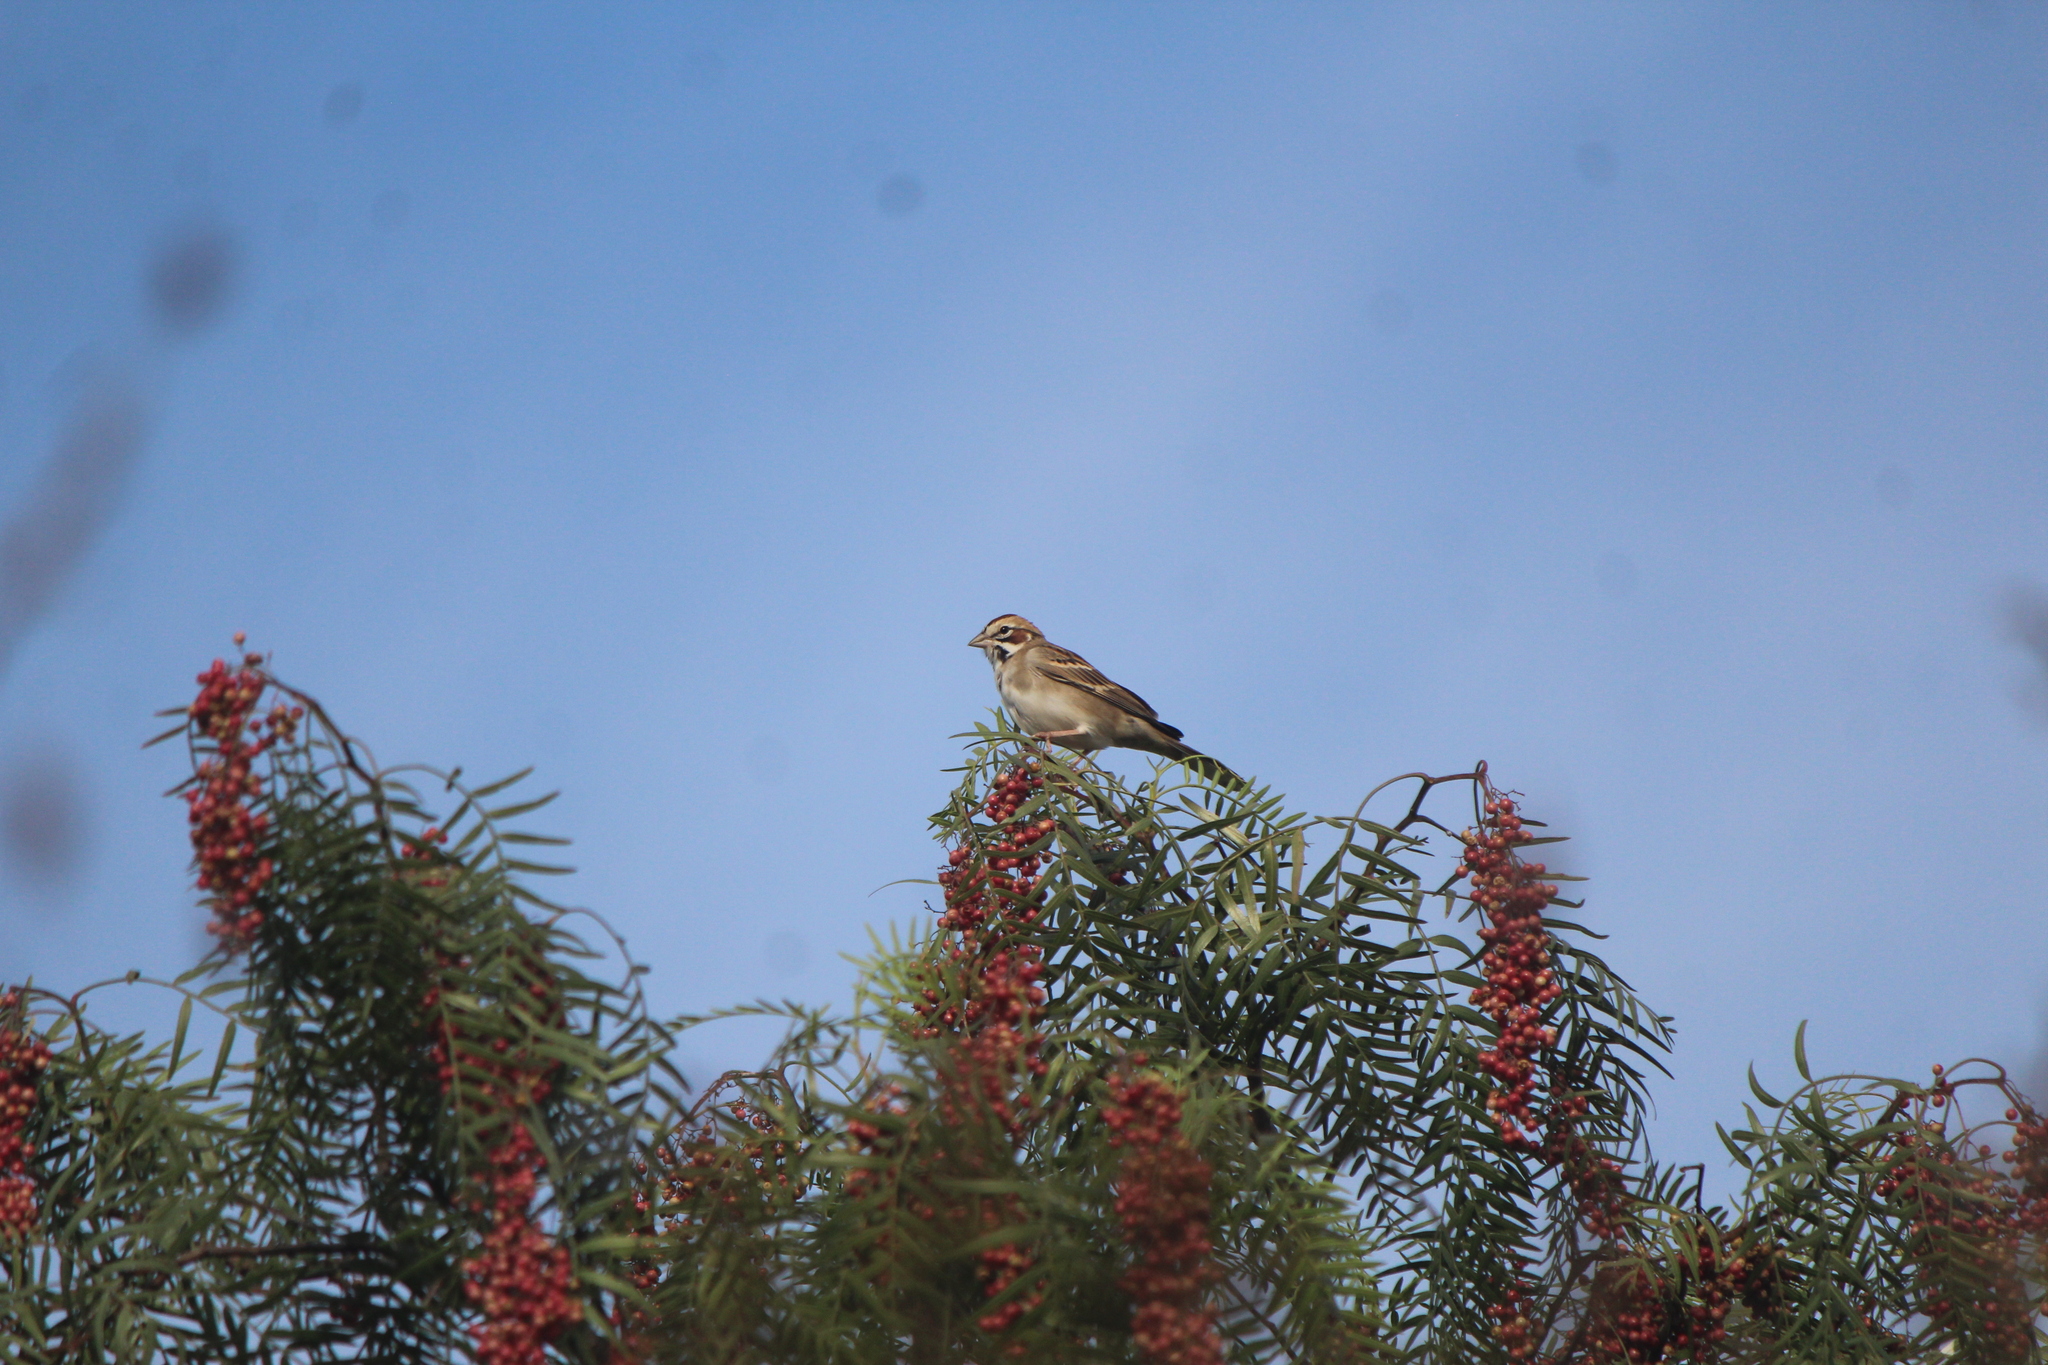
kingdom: Animalia
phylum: Chordata
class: Aves
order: Passeriformes
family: Passerellidae
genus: Chondestes
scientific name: Chondestes grammacus
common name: Lark sparrow
